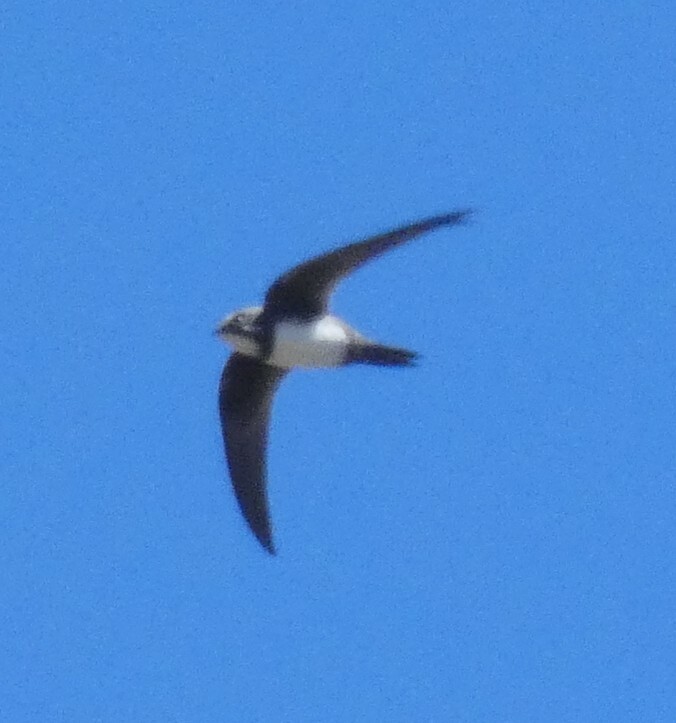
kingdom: Animalia
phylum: Chordata
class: Aves
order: Apodiformes
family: Apodidae
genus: Tachymarptis
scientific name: Tachymarptis melba
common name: Alpine swift
